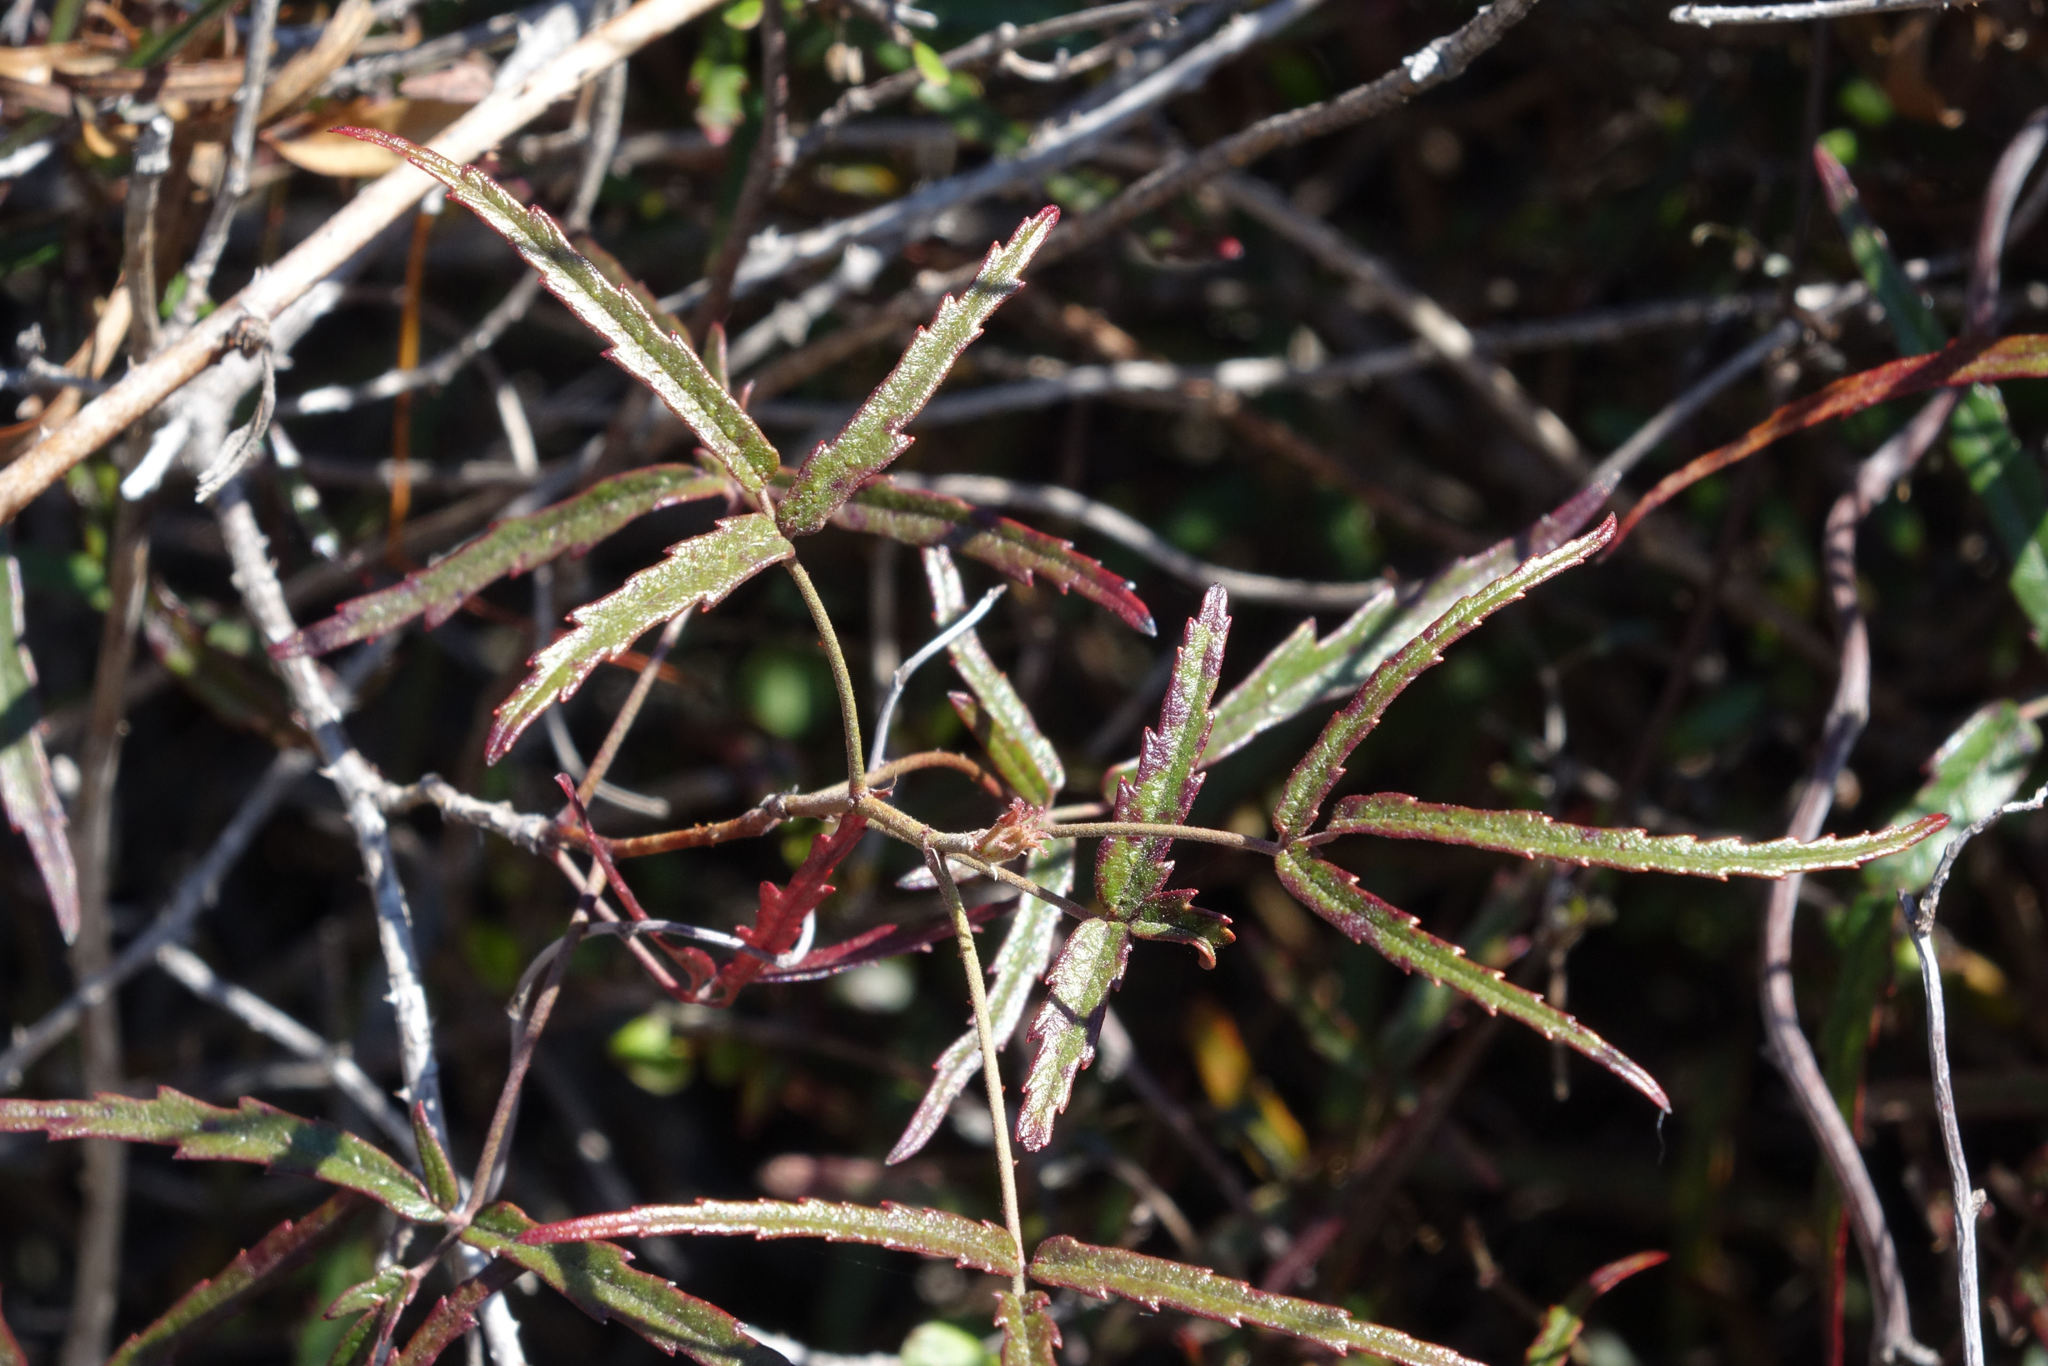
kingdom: Plantae
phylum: Tracheophyta
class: Magnoliopsida
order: Rosales
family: Rosaceae
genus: Rubus
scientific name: Rubus schmidelioides
